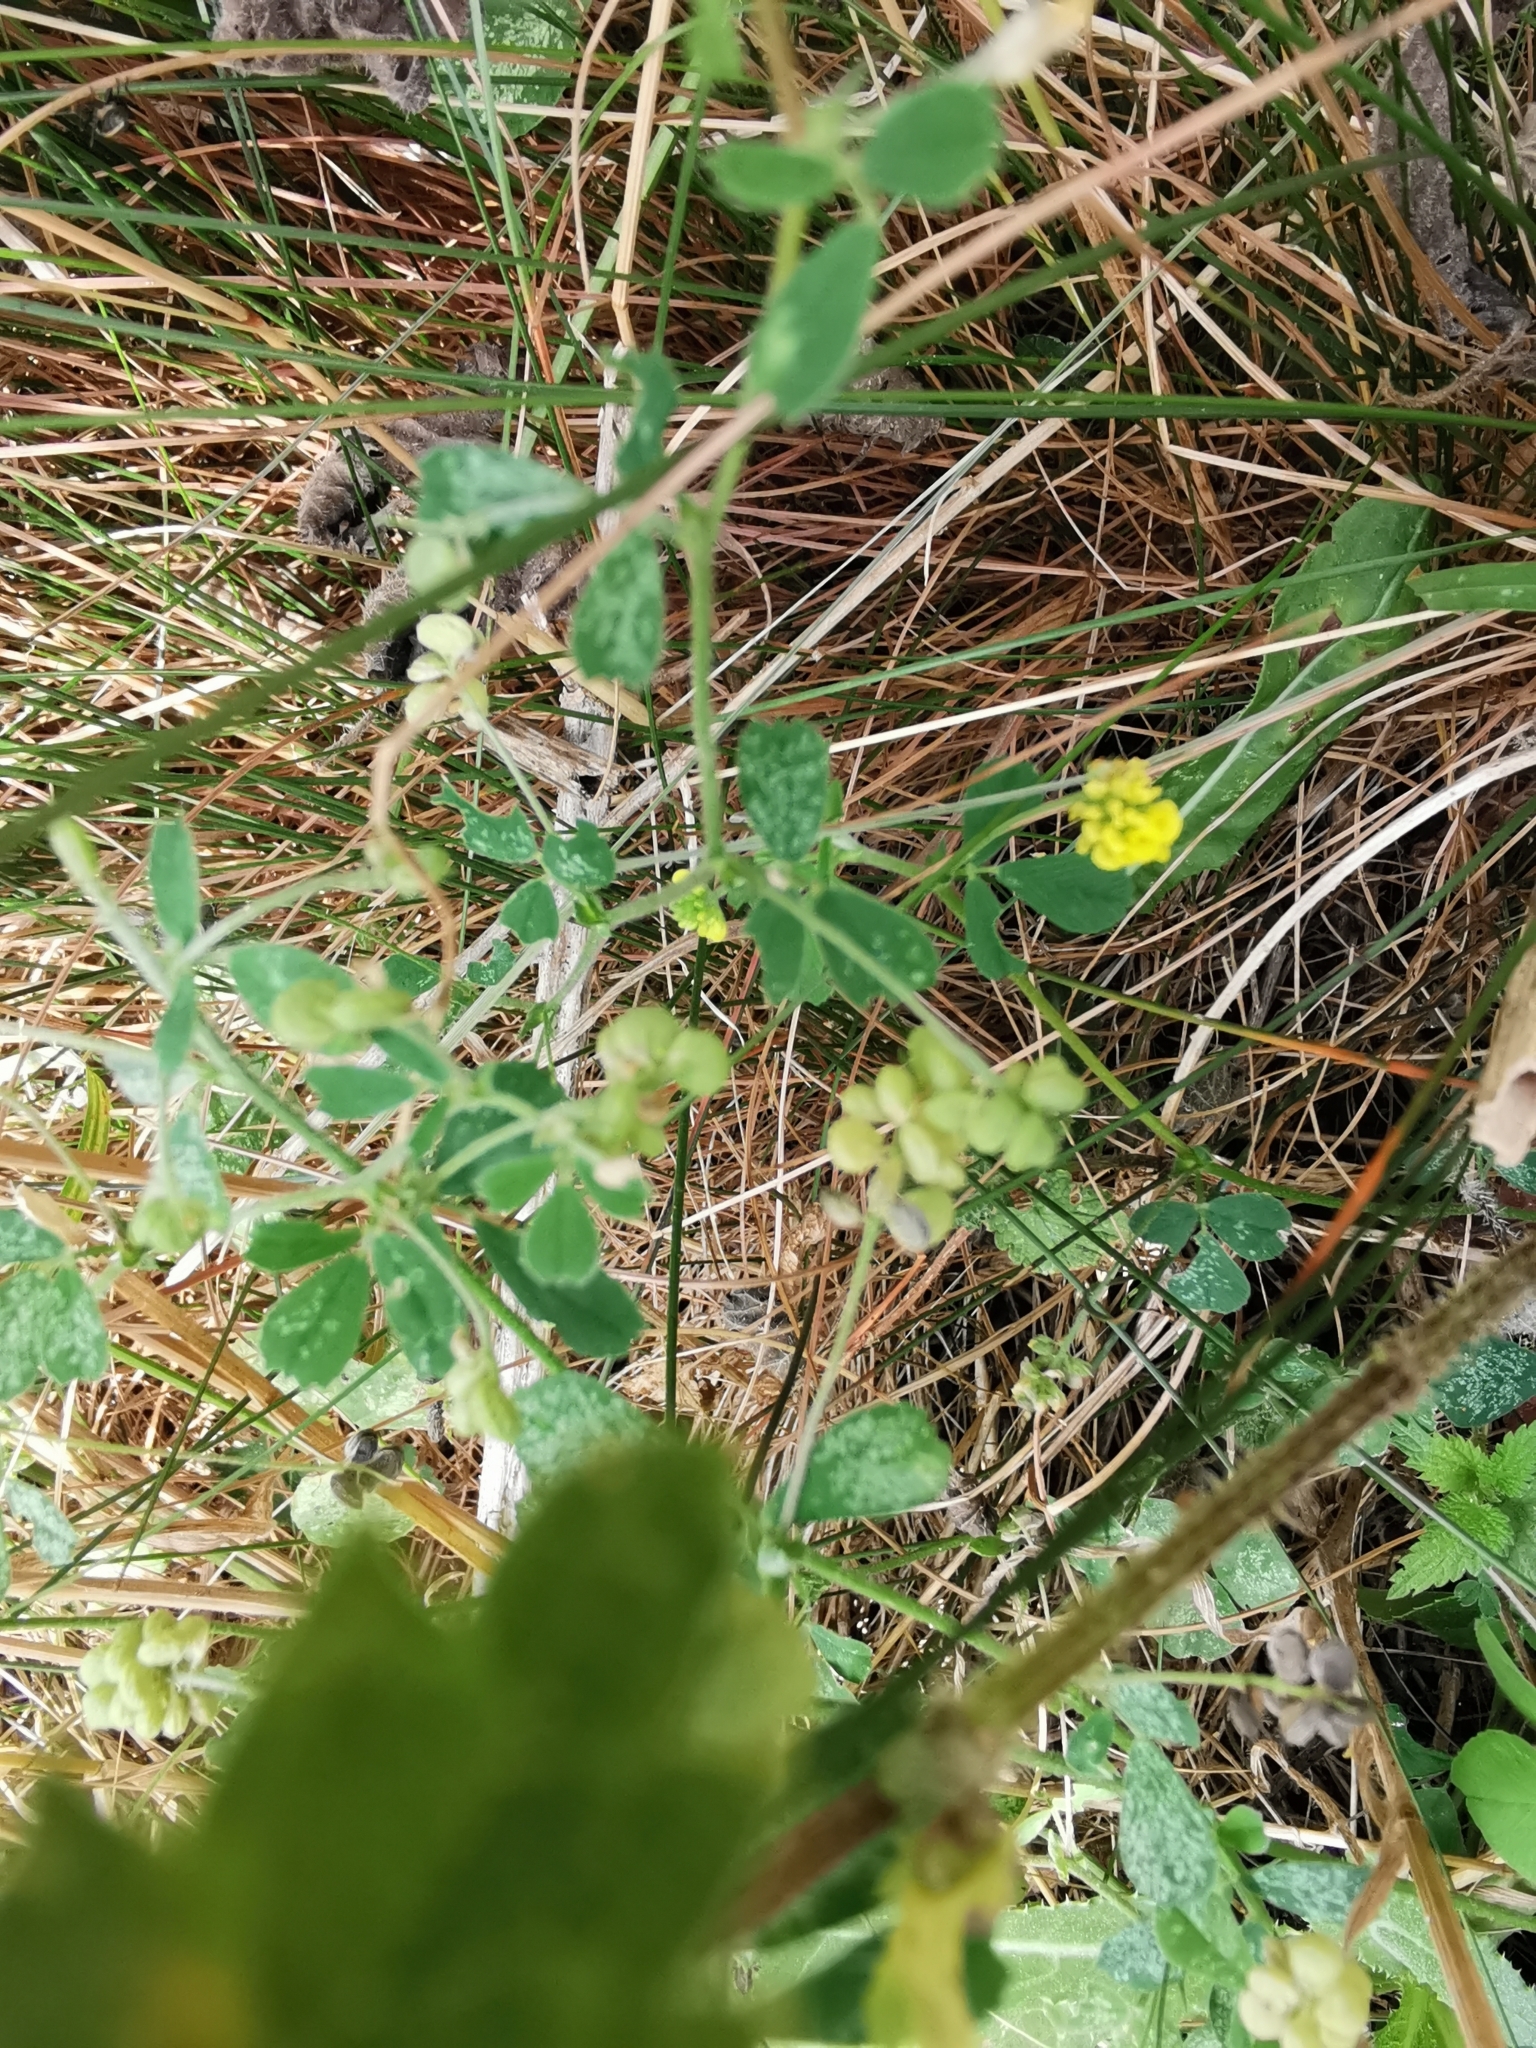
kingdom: Plantae
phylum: Tracheophyta
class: Magnoliopsida
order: Fabales
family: Fabaceae
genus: Medicago
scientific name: Medicago lupulina
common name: Black medick
